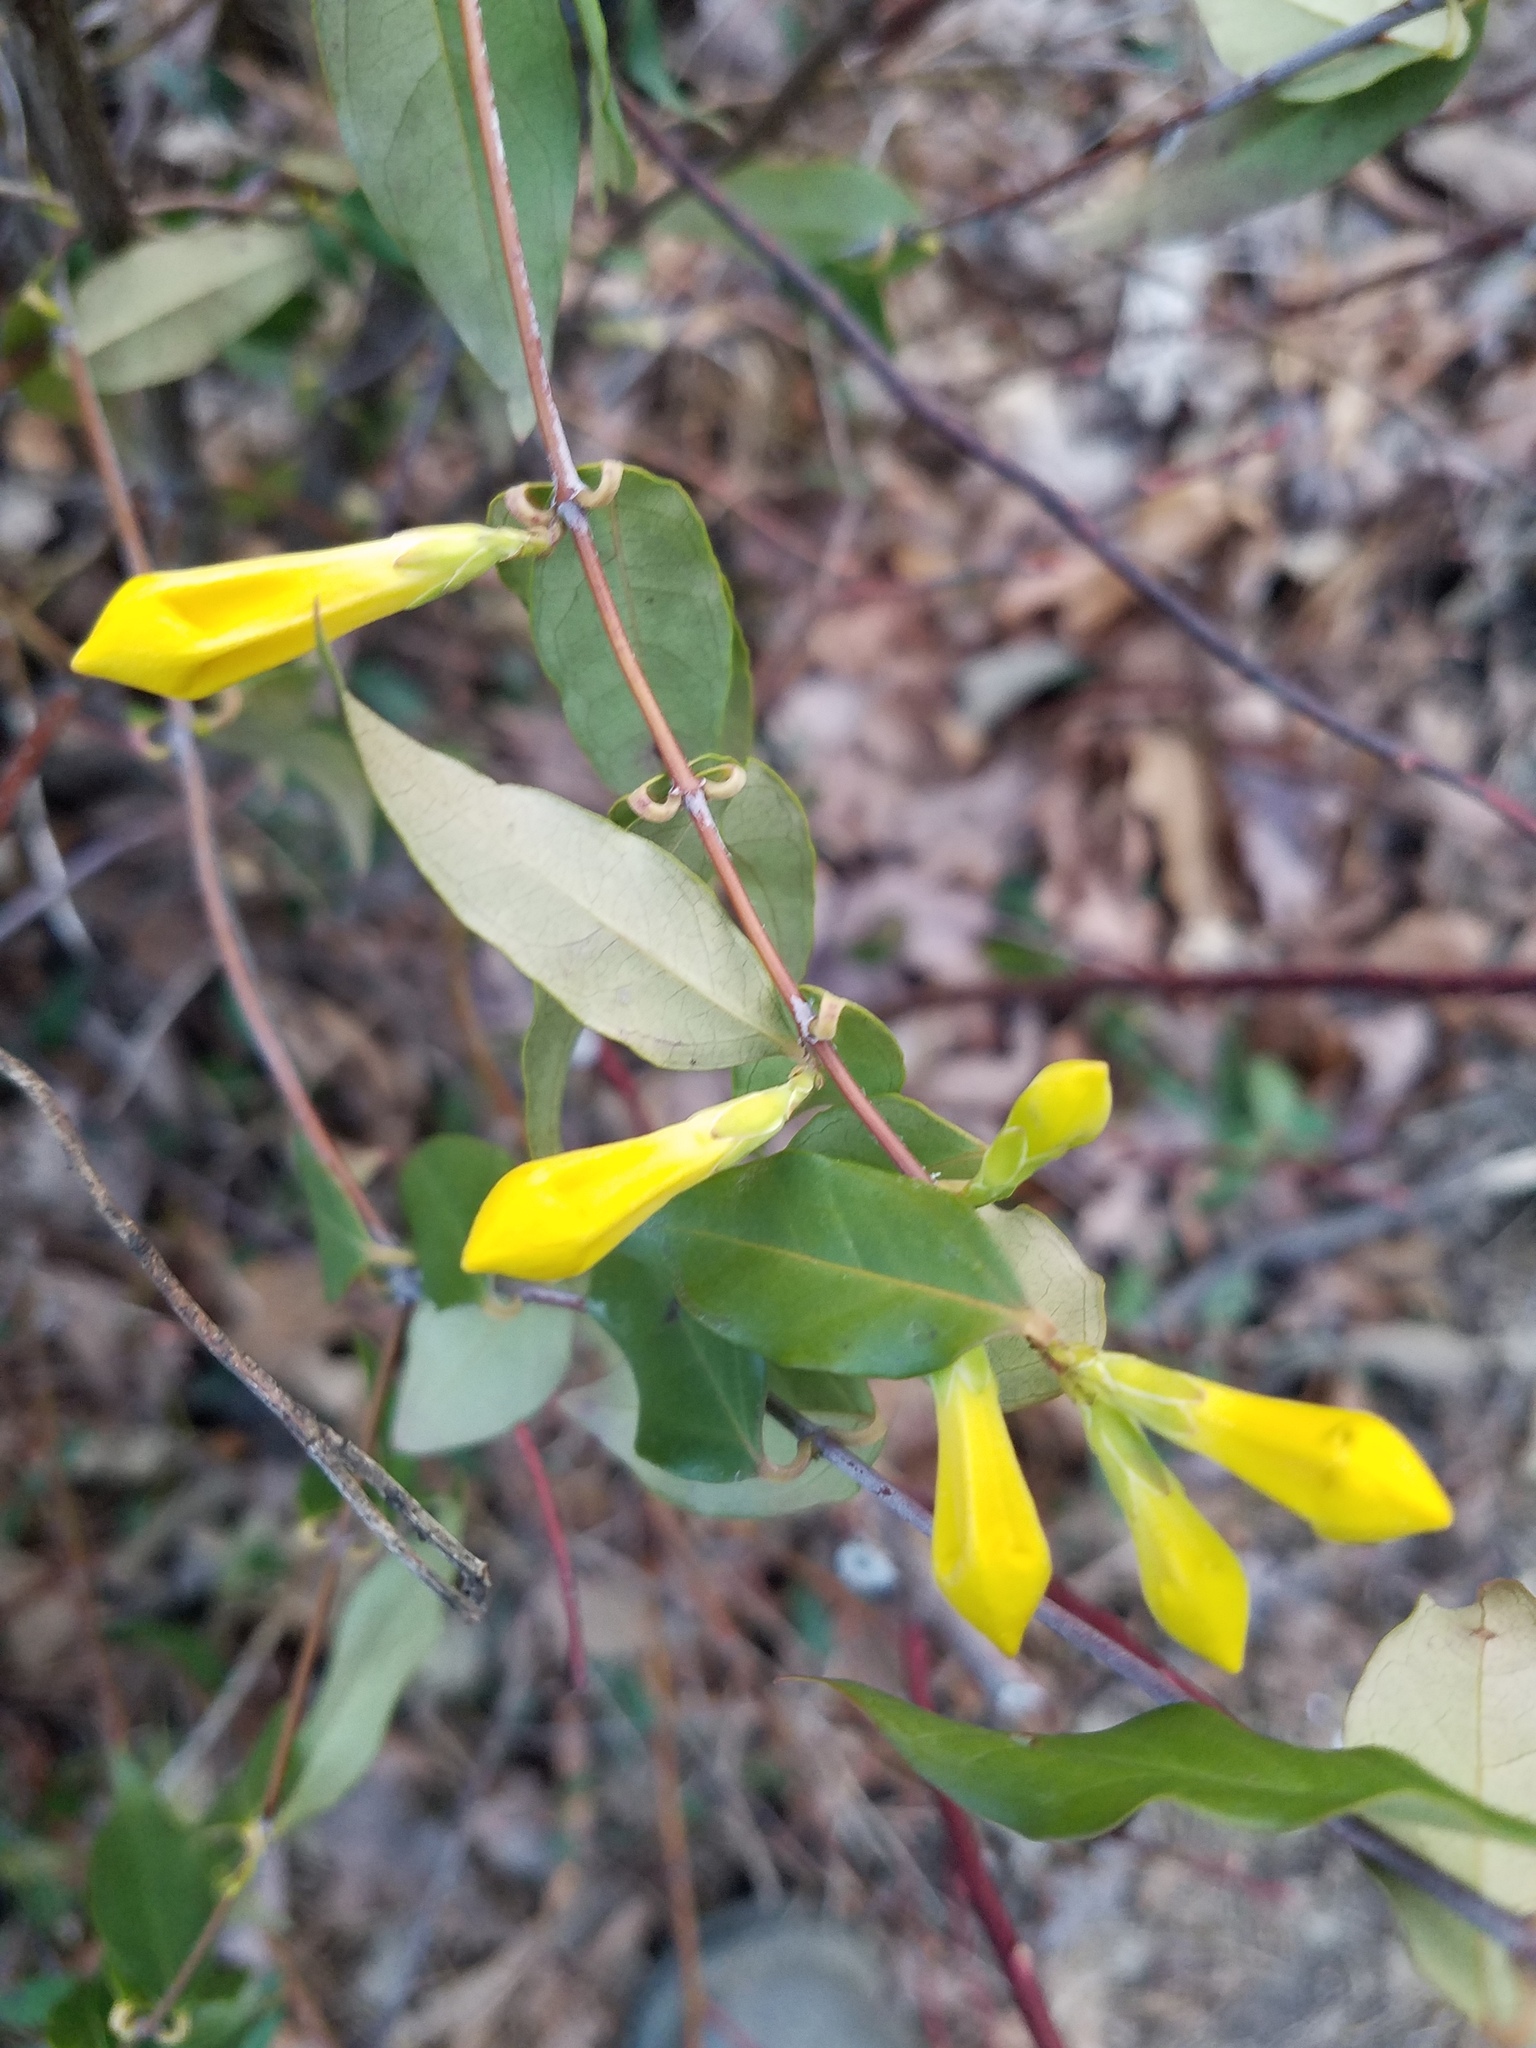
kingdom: Plantae
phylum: Tracheophyta
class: Magnoliopsida
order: Gentianales
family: Gelsemiaceae
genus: Gelsemium
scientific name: Gelsemium sempervirens
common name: Carolina-jasmine
